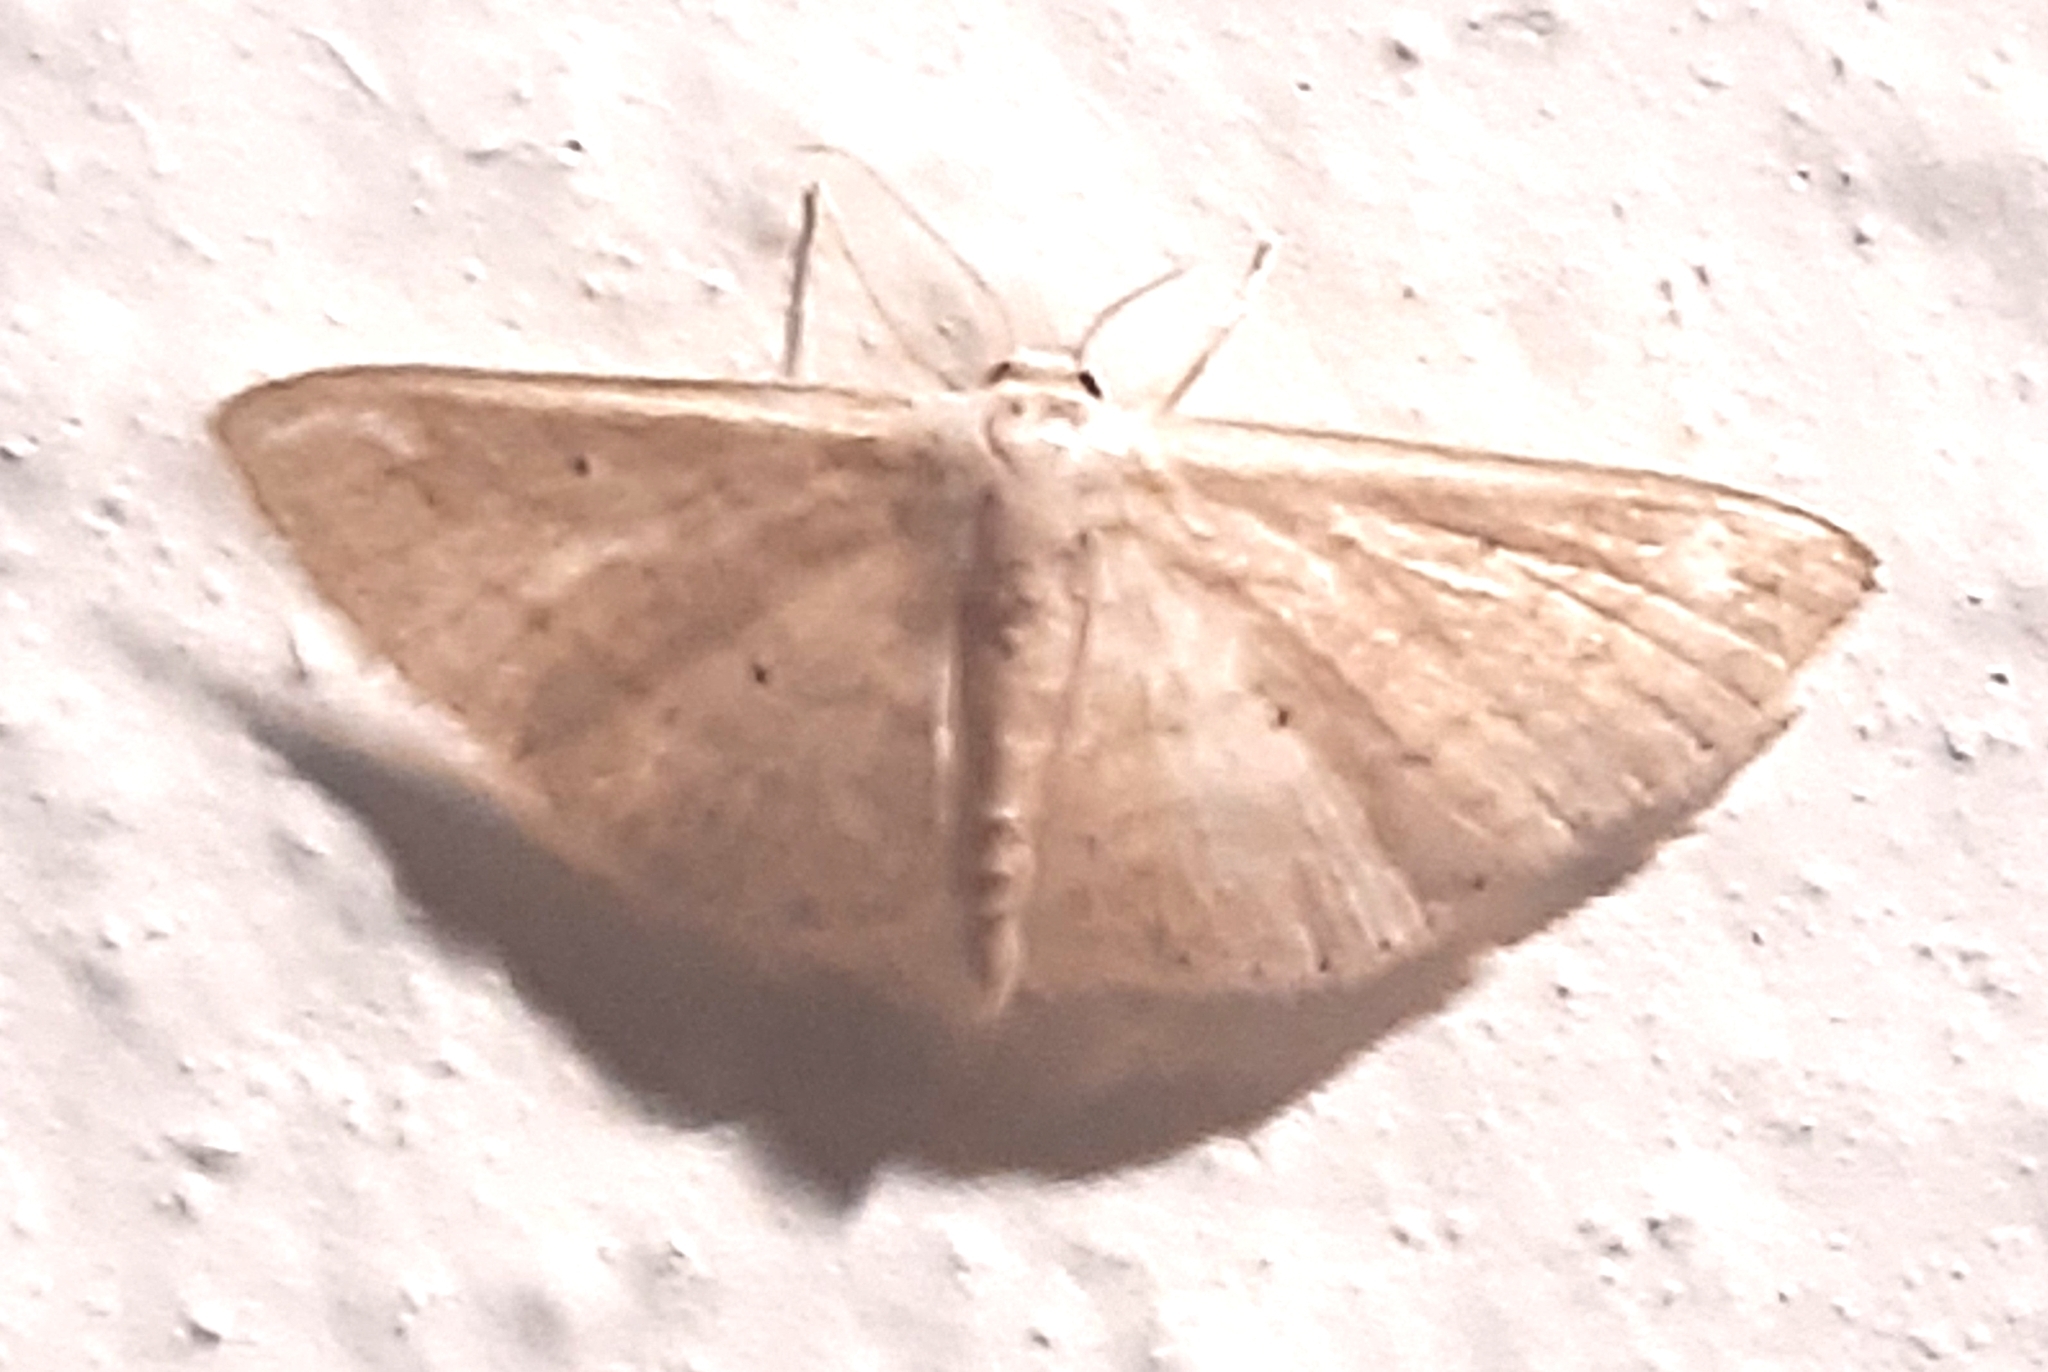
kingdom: Animalia
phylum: Arthropoda
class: Insecta
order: Lepidoptera
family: Geometridae
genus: Scopula
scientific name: Scopula minorata
